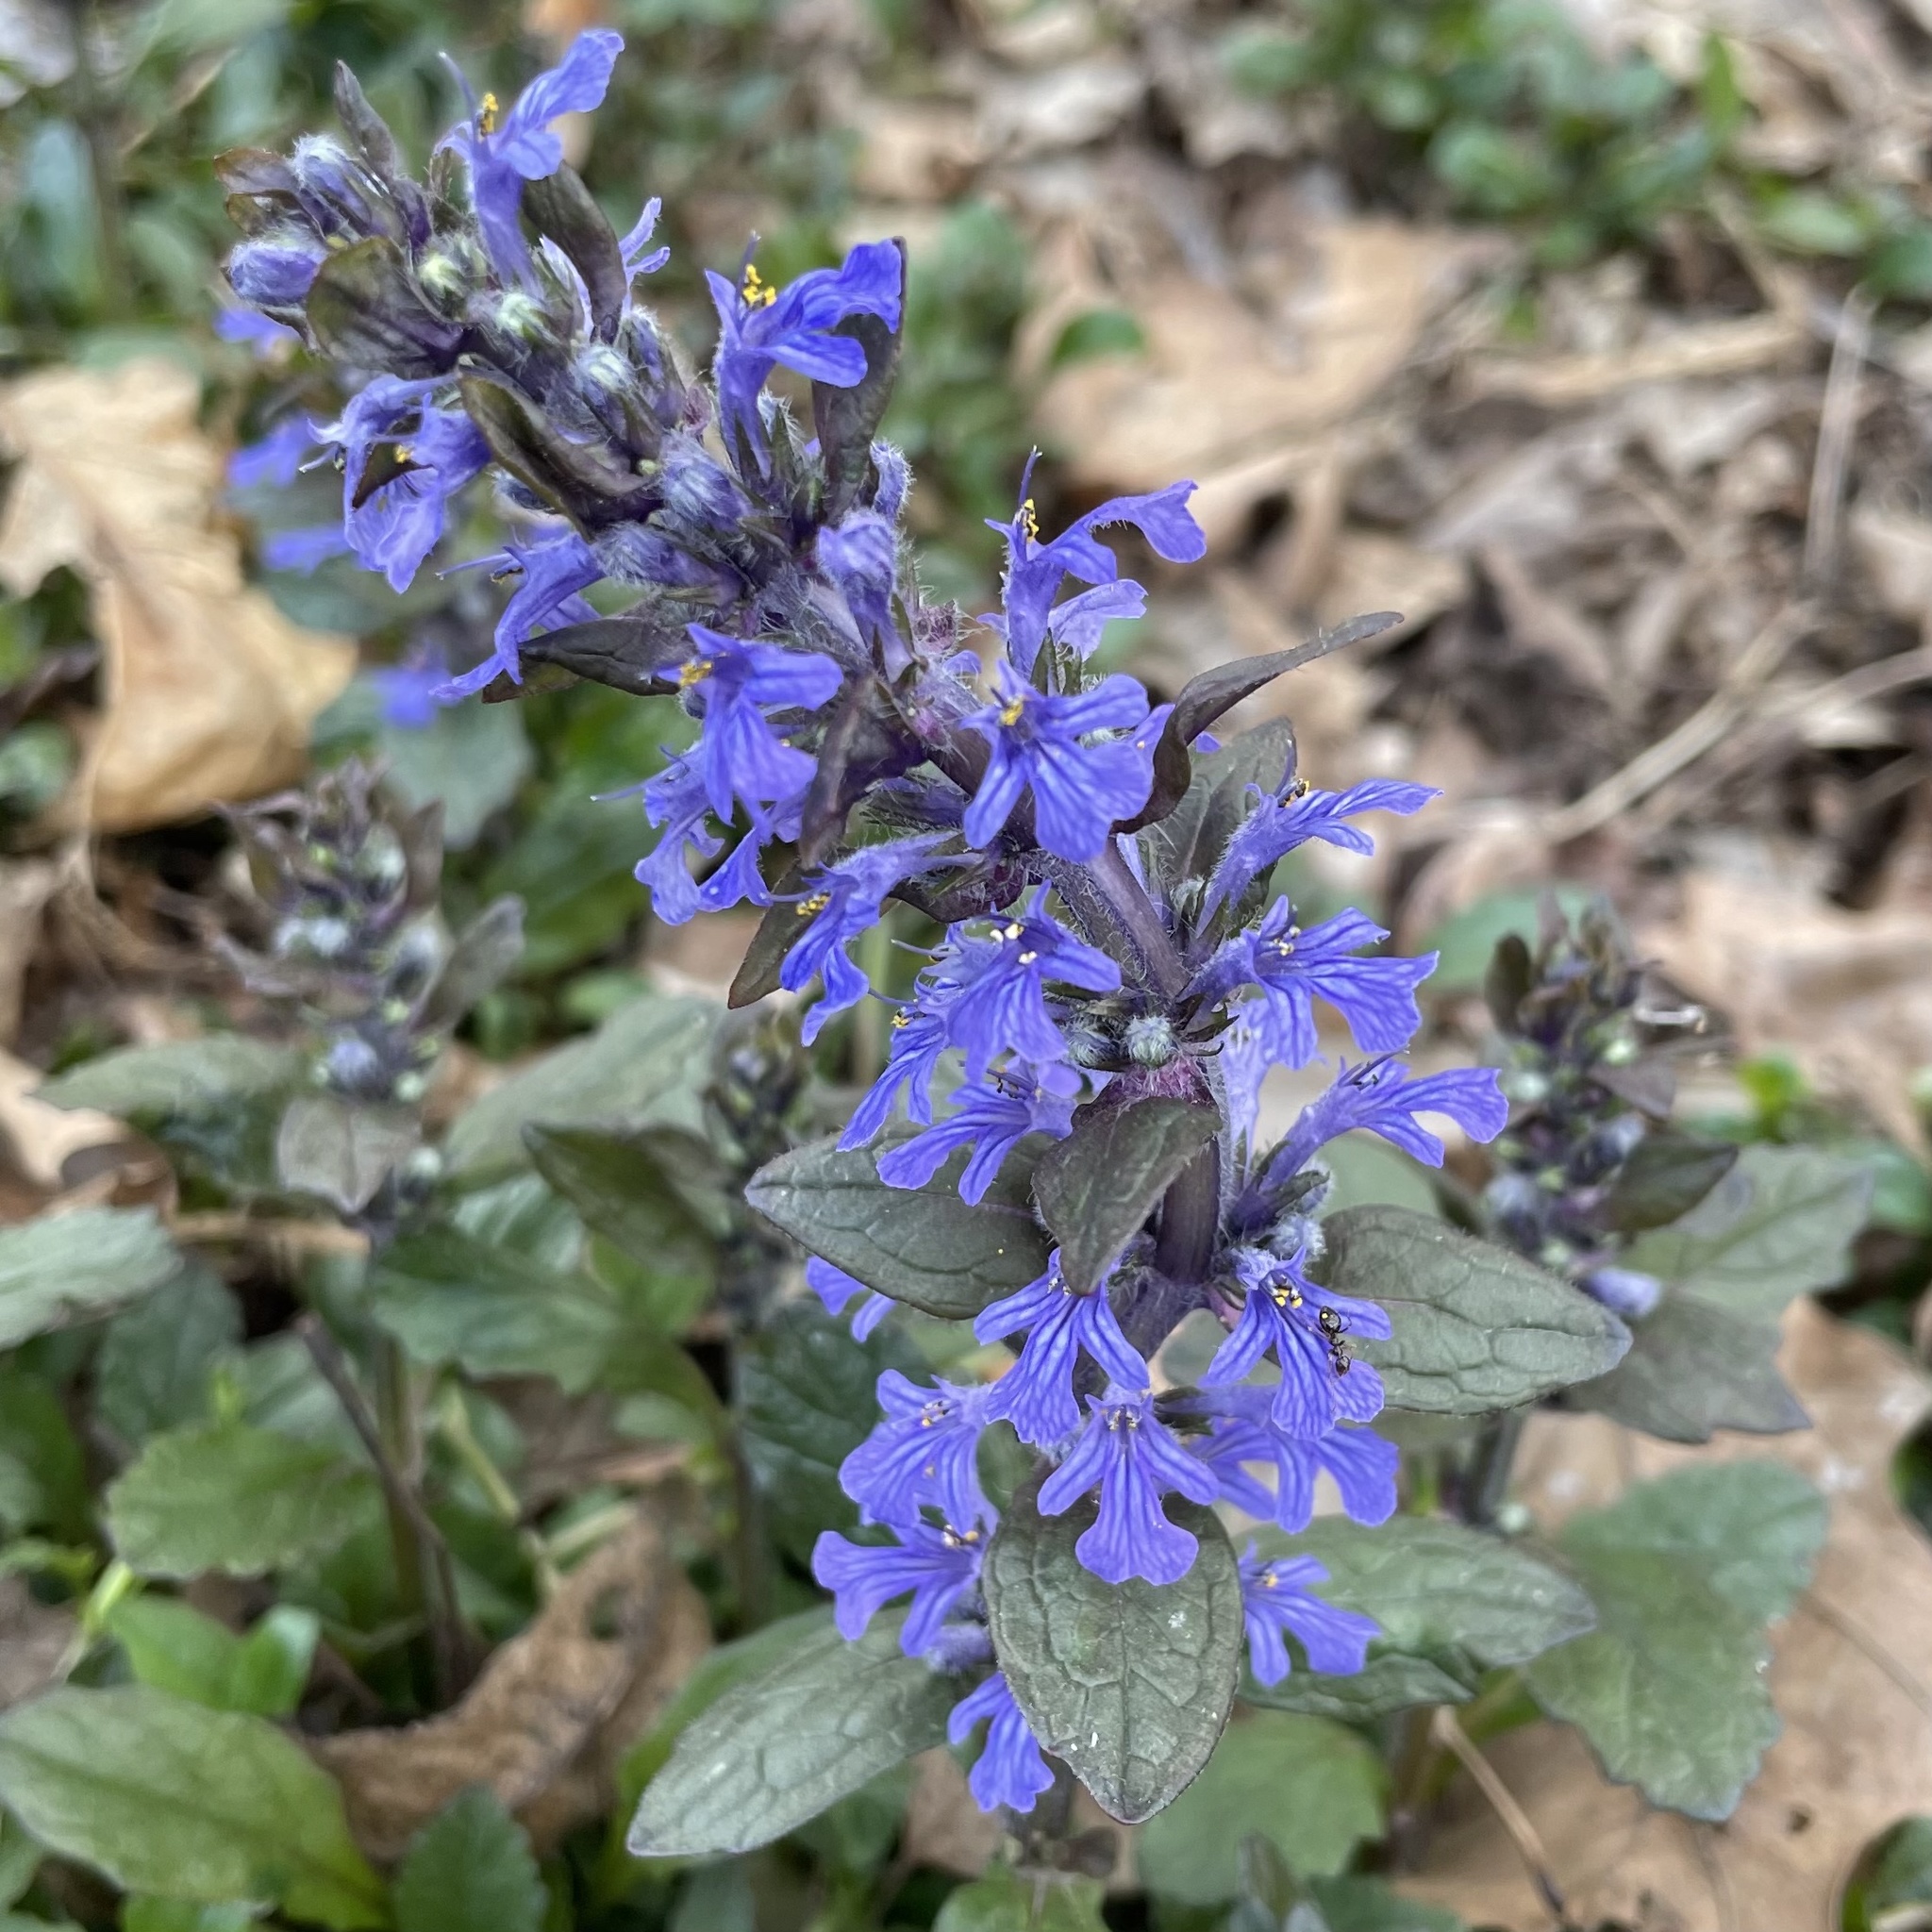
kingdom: Plantae
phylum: Tracheophyta
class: Magnoliopsida
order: Lamiales
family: Lamiaceae
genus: Ajuga
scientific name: Ajuga reptans
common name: Bugle
